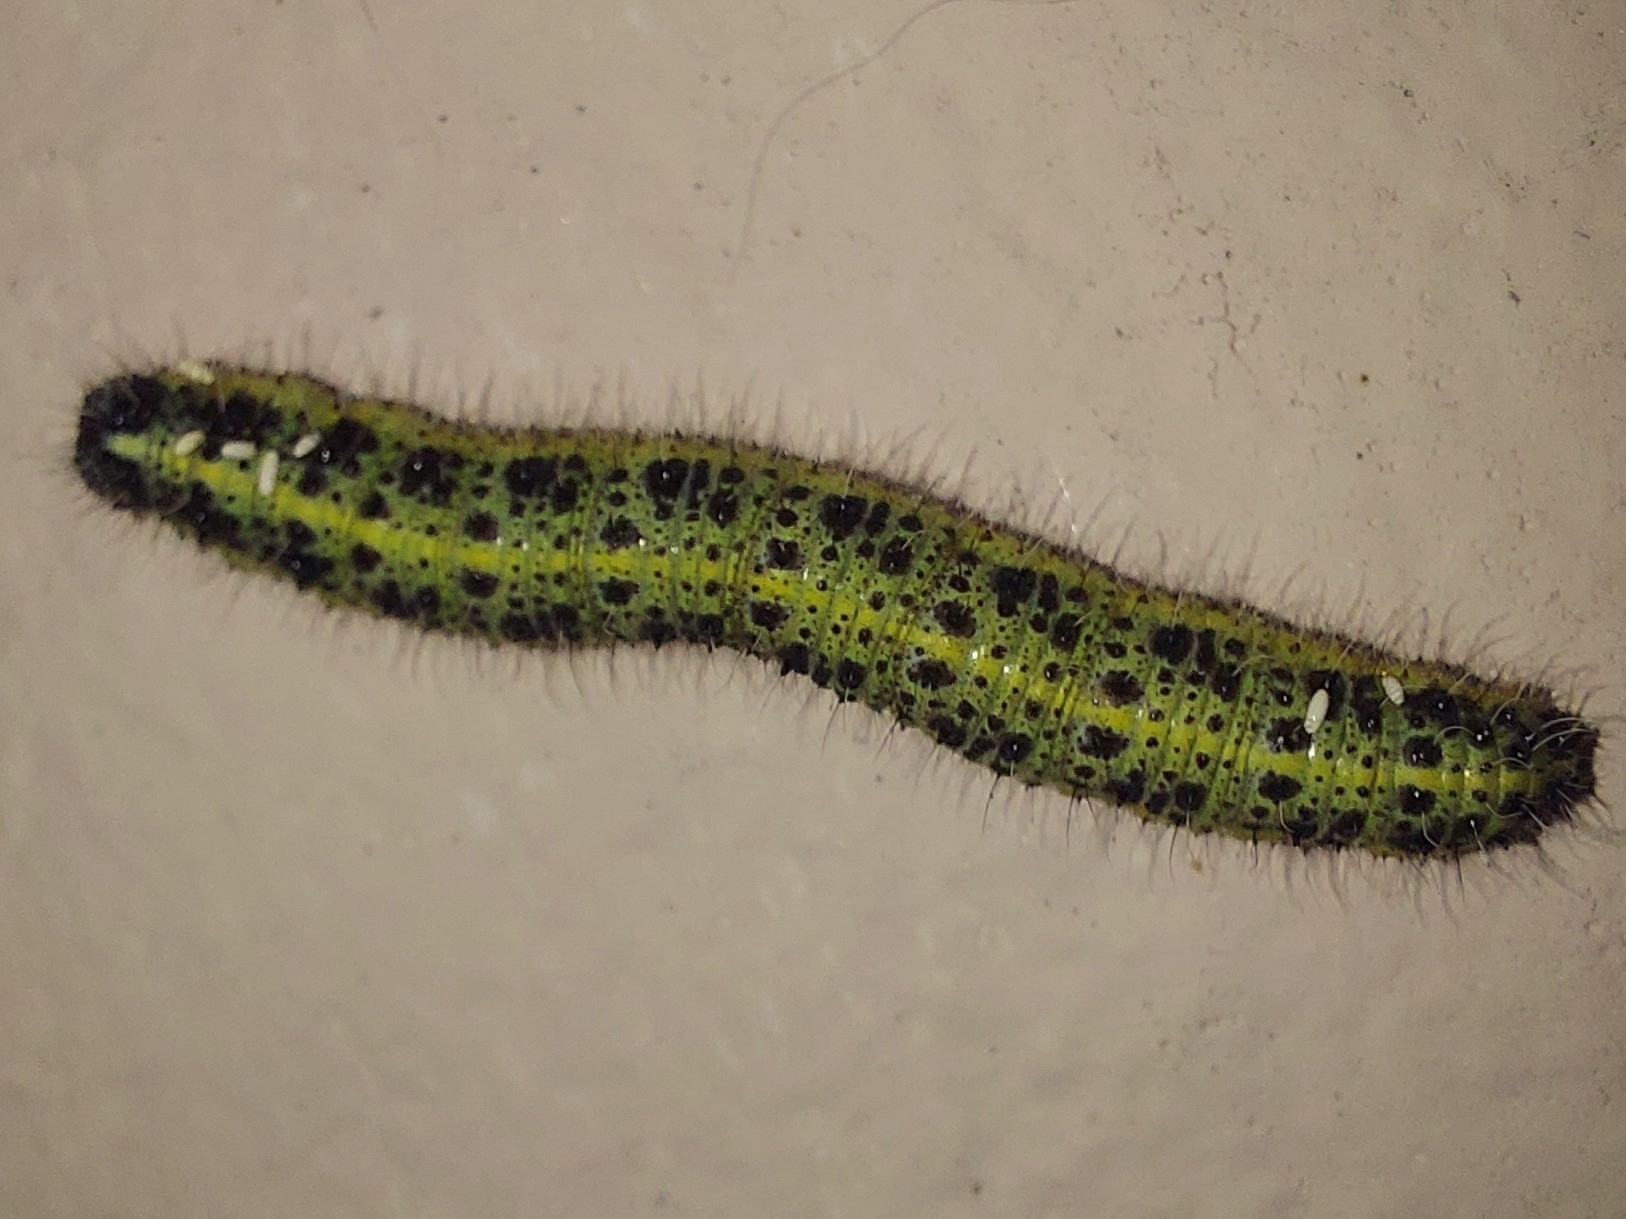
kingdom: Animalia
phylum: Arthropoda
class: Insecta
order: Lepidoptera
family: Pieridae
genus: Pieris
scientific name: Pieris brassicae
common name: Large white
